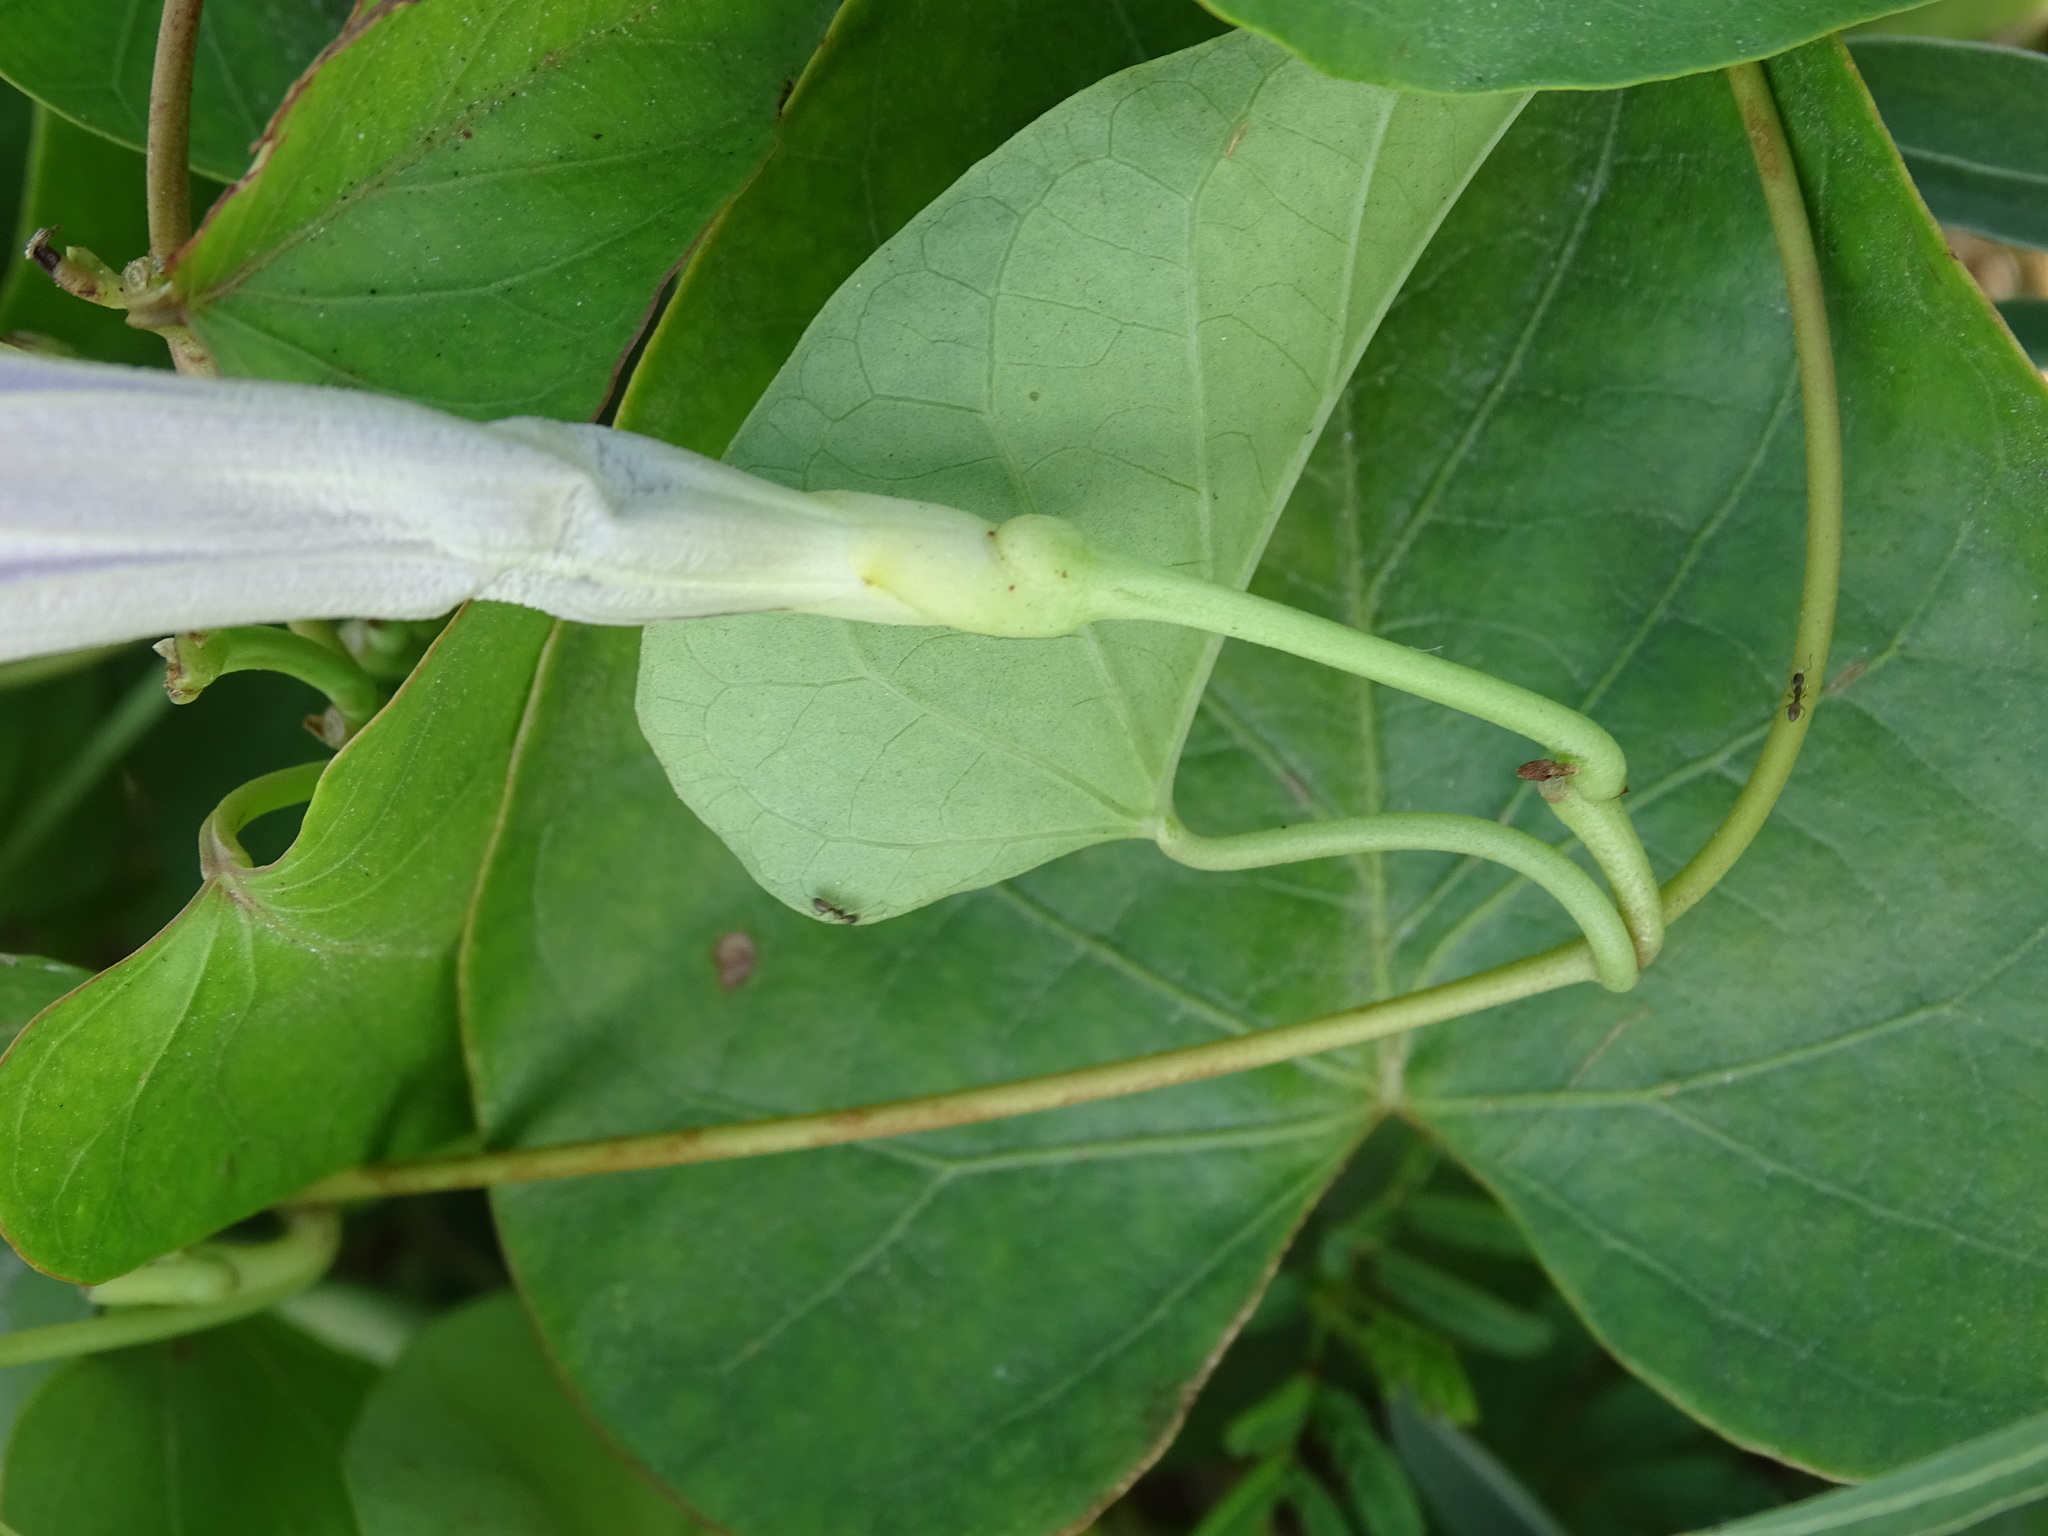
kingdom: Plantae
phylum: Tracheophyta
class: Magnoliopsida
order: Solanales
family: Convolvulaceae
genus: Ipomoea
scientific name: Ipomoea anisomeres
